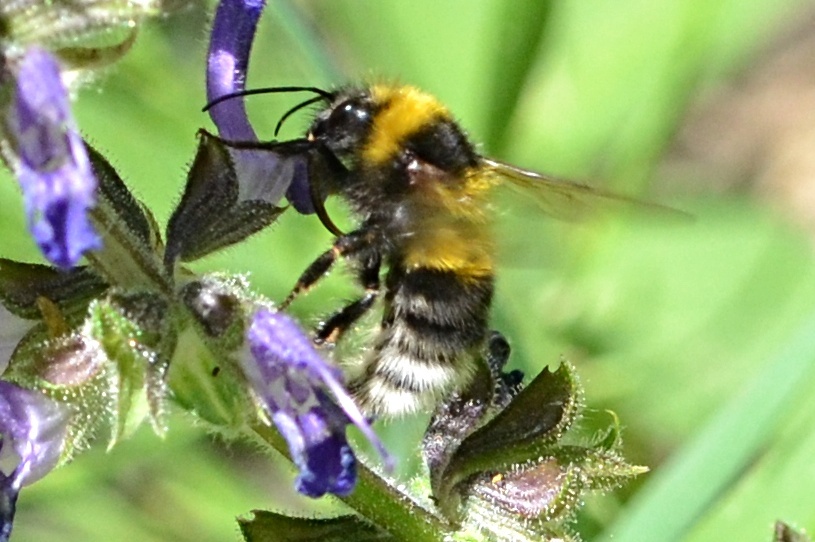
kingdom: Animalia
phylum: Arthropoda
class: Insecta
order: Hymenoptera
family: Apidae
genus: Bombus
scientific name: Bombus hortorum
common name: Garden bumblebee
